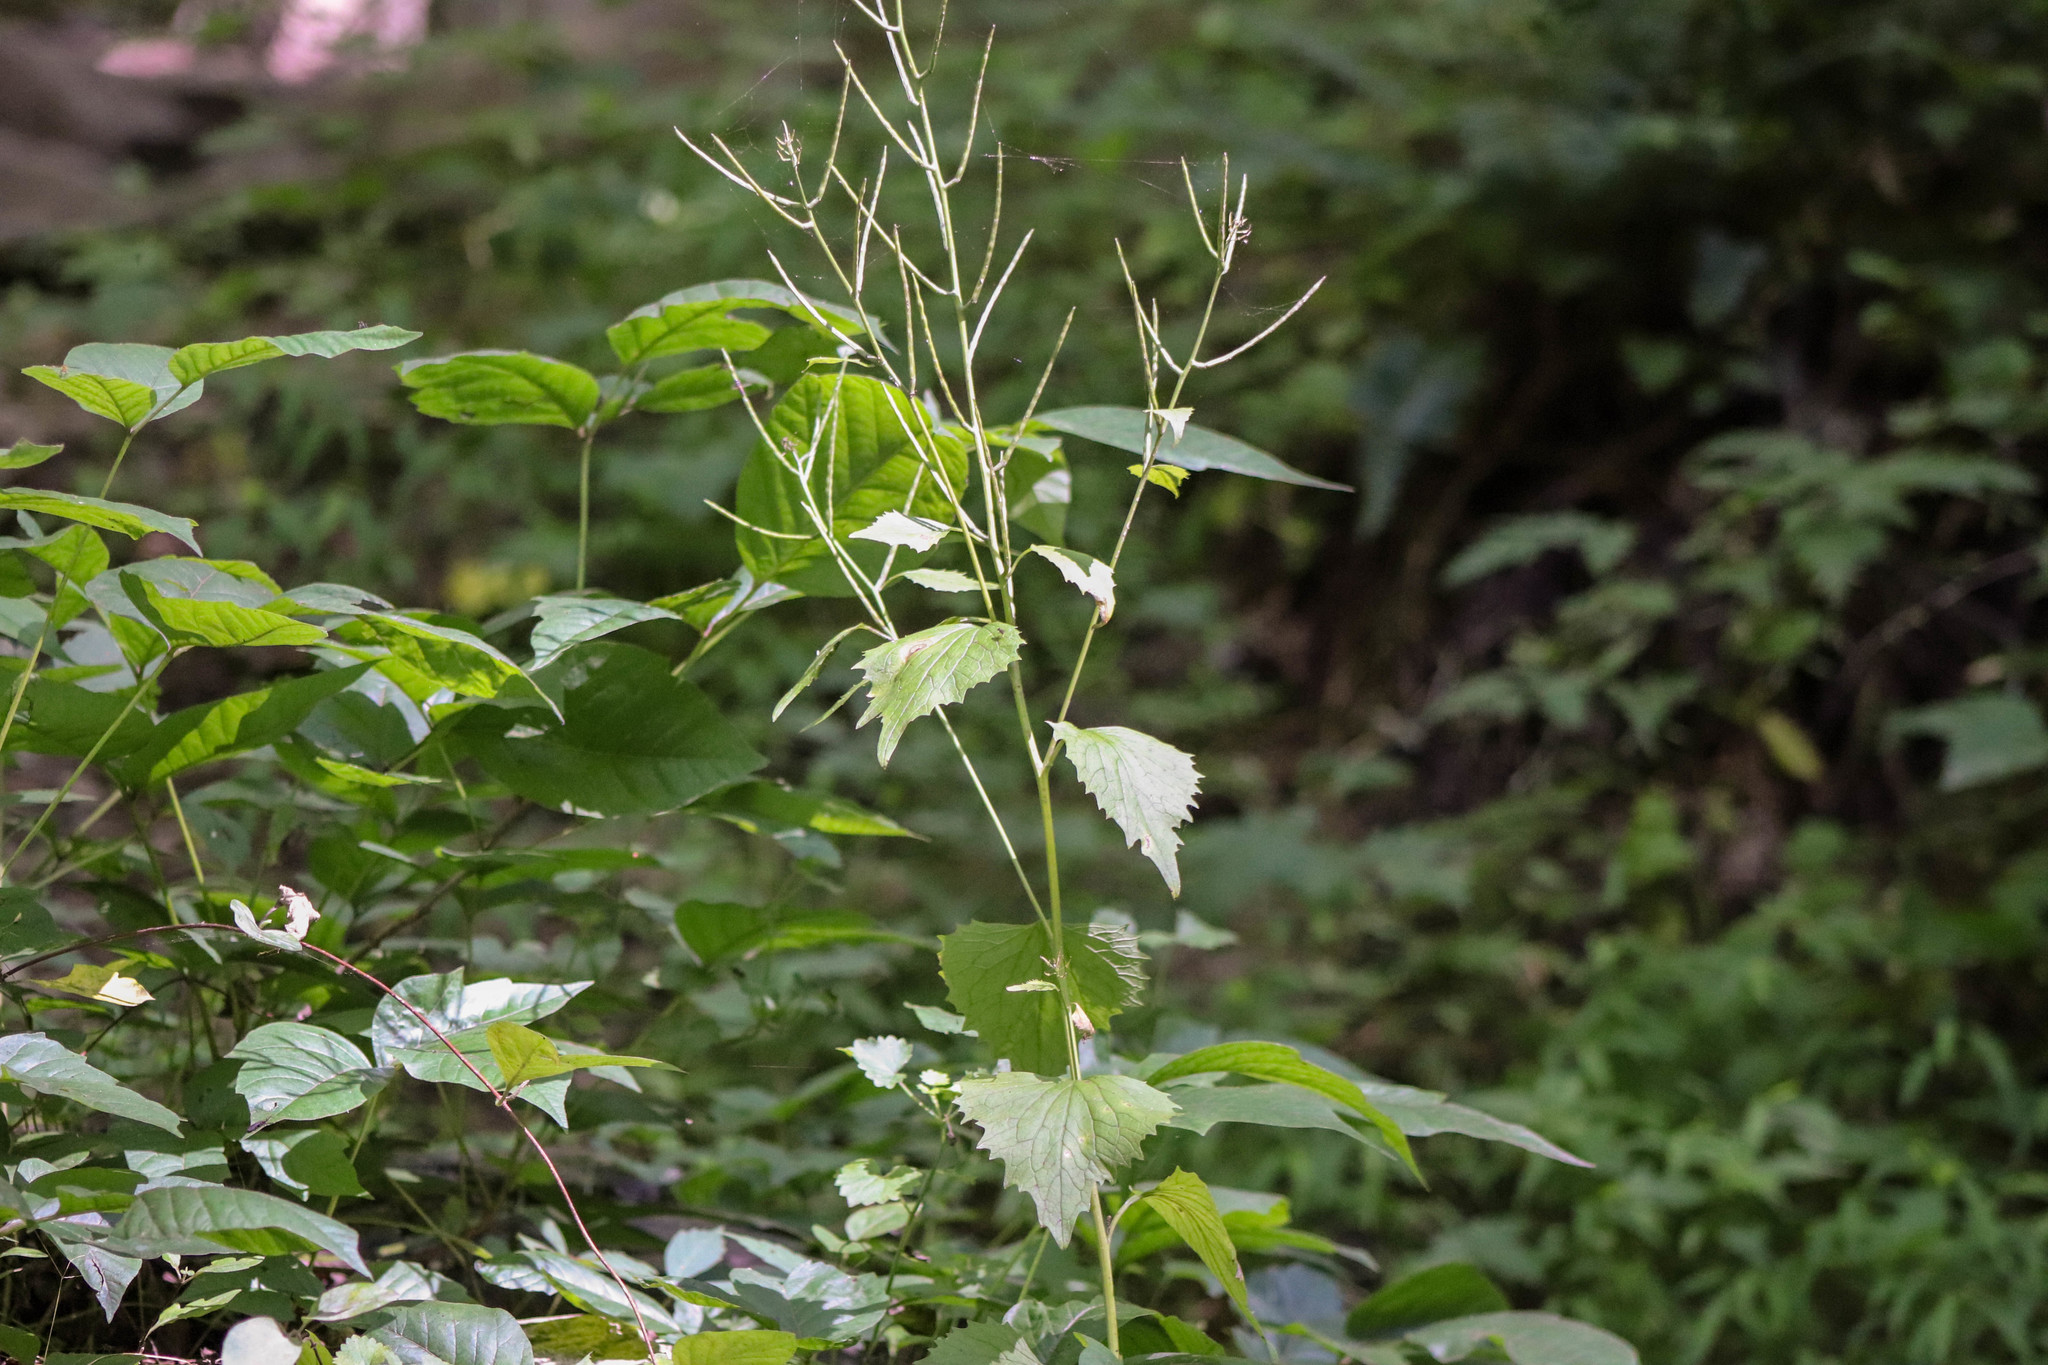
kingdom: Plantae
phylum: Tracheophyta
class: Magnoliopsida
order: Brassicales
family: Brassicaceae
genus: Alliaria
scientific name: Alliaria petiolata
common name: Garlic mustard
